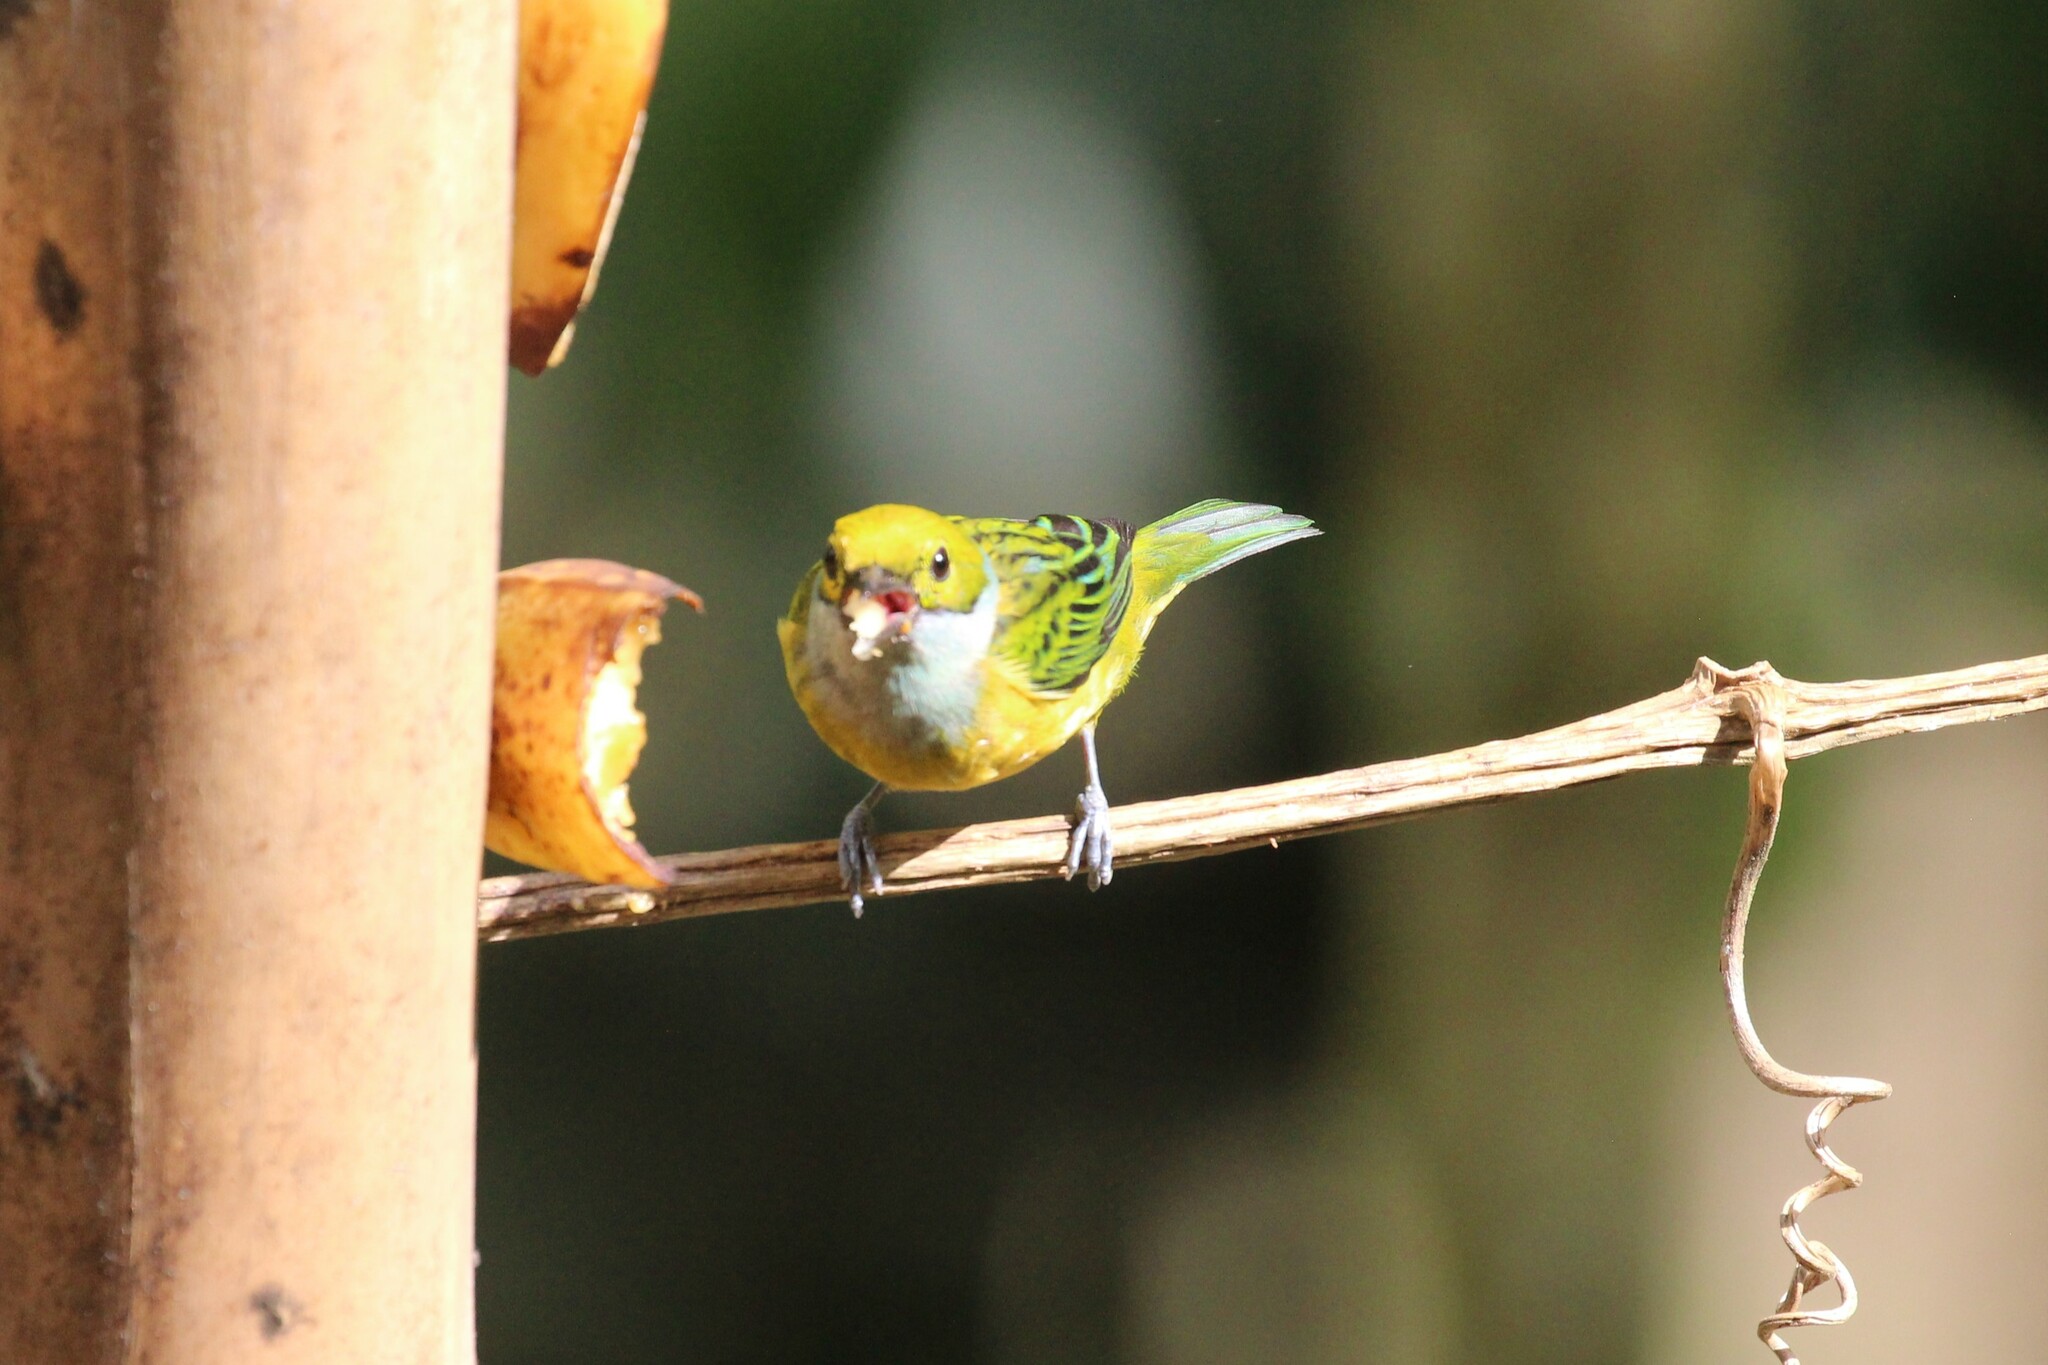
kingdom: Animalia
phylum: Chordata
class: Aves
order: Passeriformes
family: Thraupidae
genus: Tangara
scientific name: Tangara icterocephala
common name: Silver-throated tanager
